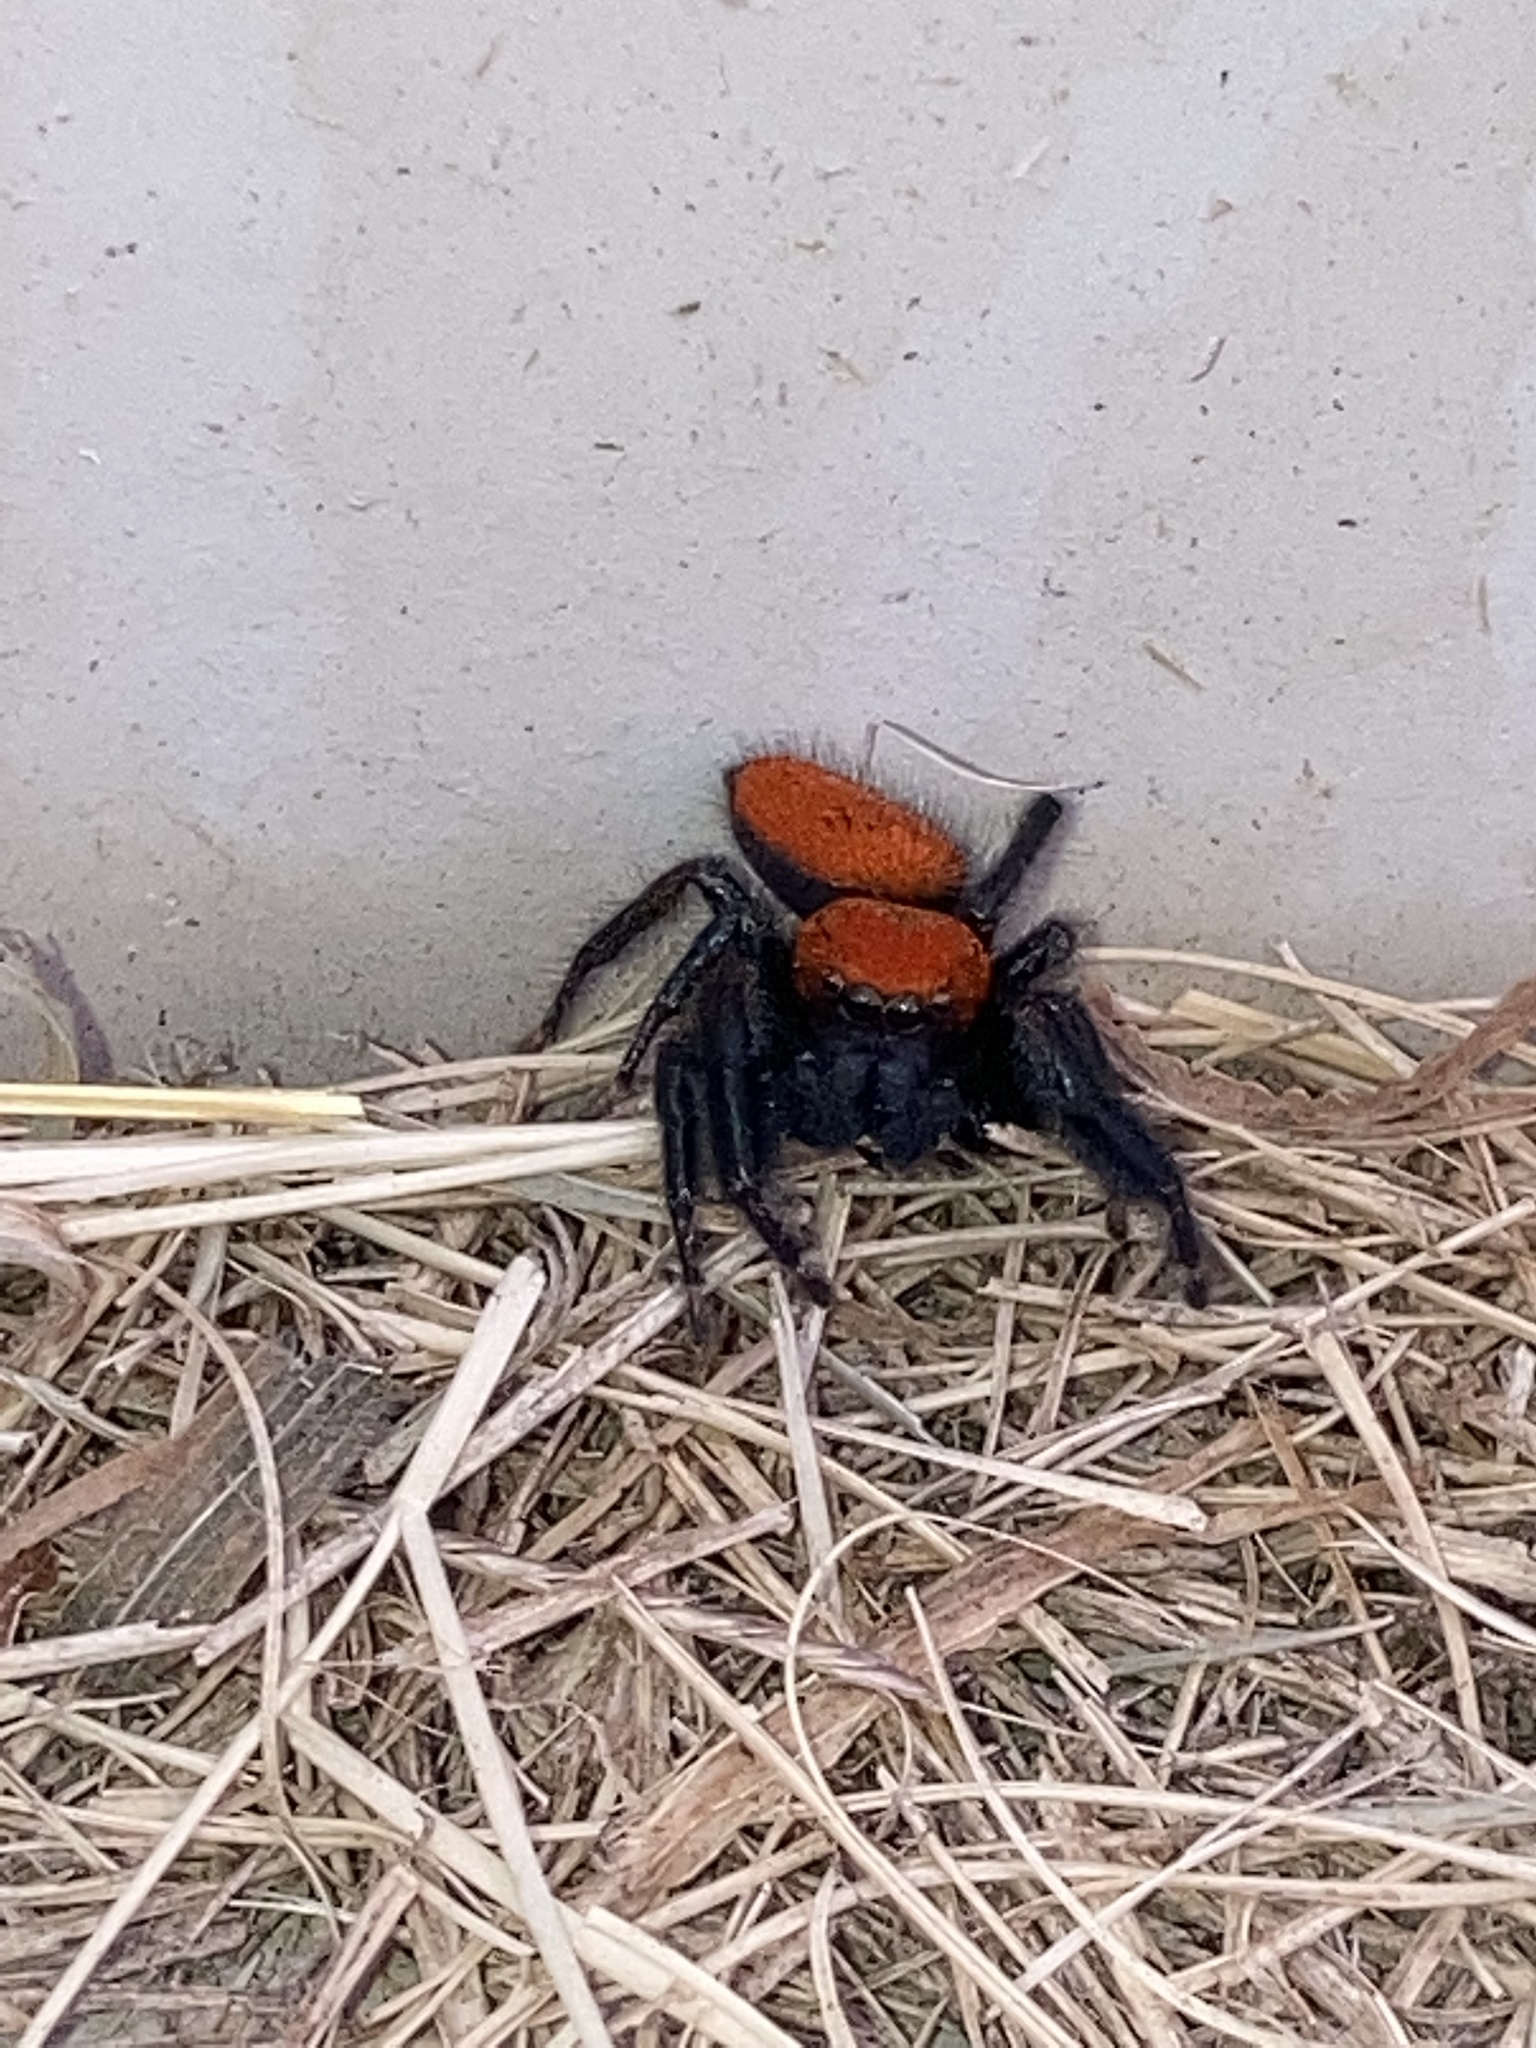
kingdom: Animalia
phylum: Arthropoda
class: Arachnida
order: Araneae
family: Salticidae
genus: Phidippus
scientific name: Phidippus cardinalis
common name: Cardinal jumper
